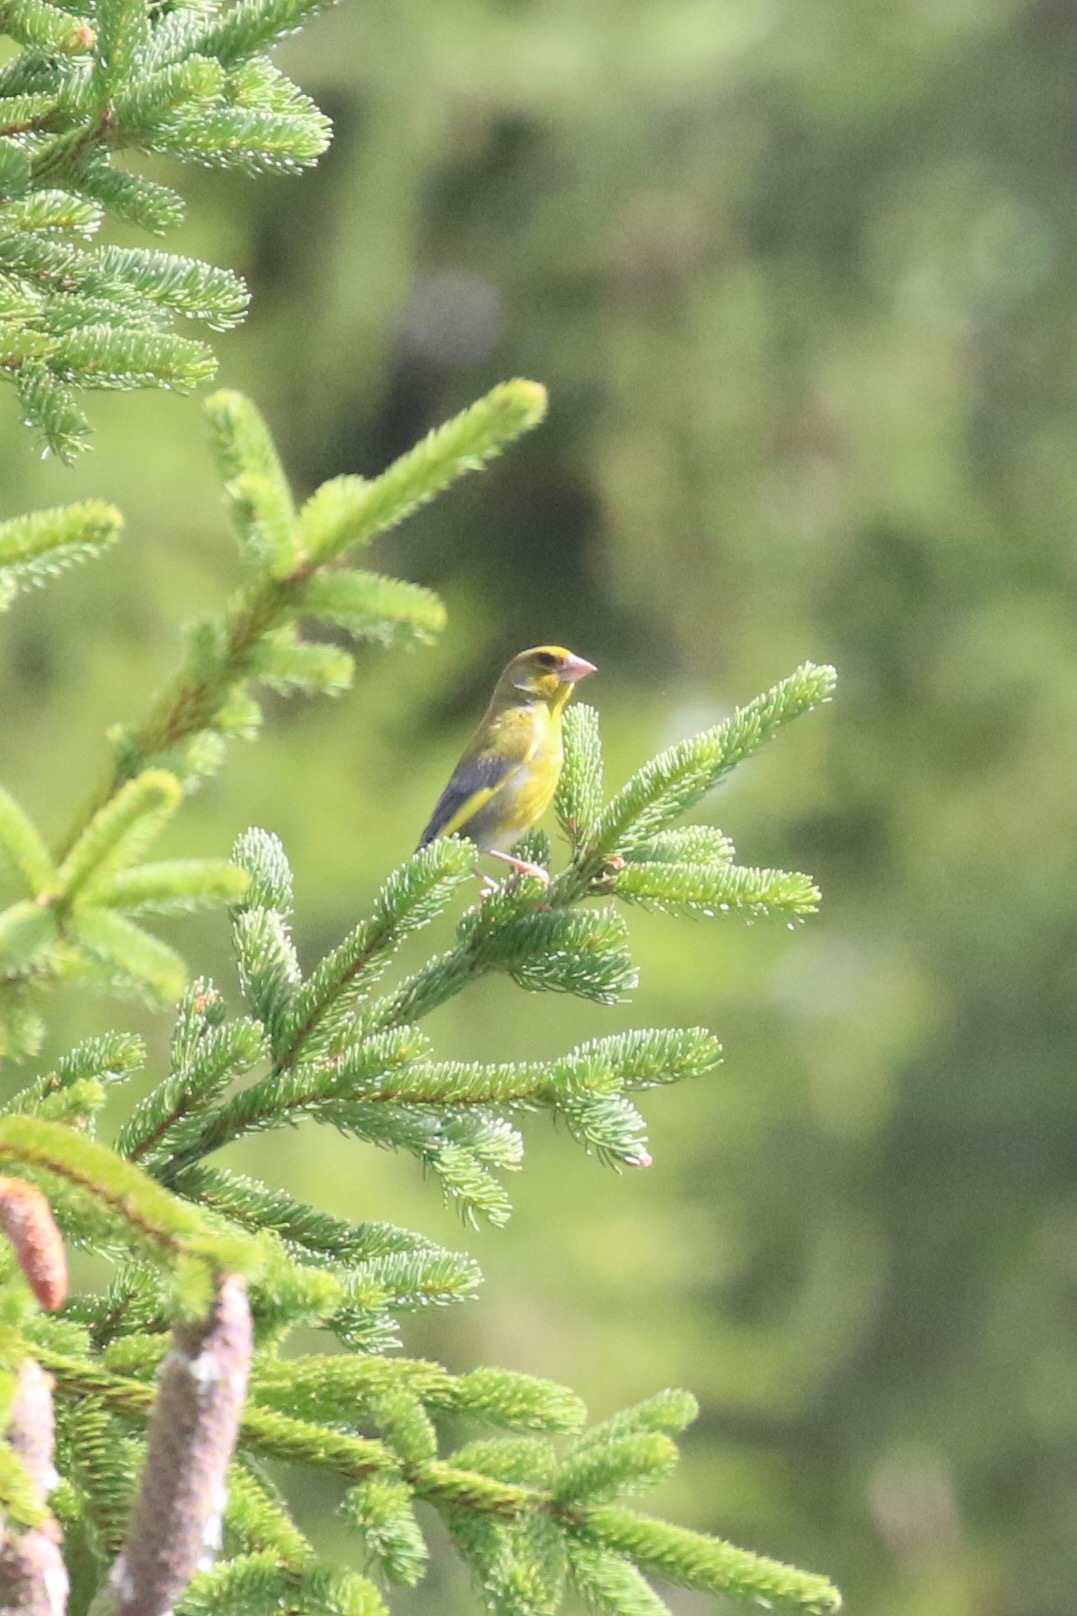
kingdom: Plantae
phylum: Tracheophyta
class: Liliopsida
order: Poales
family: Poaceae
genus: Chloris
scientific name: Chloris chloris
